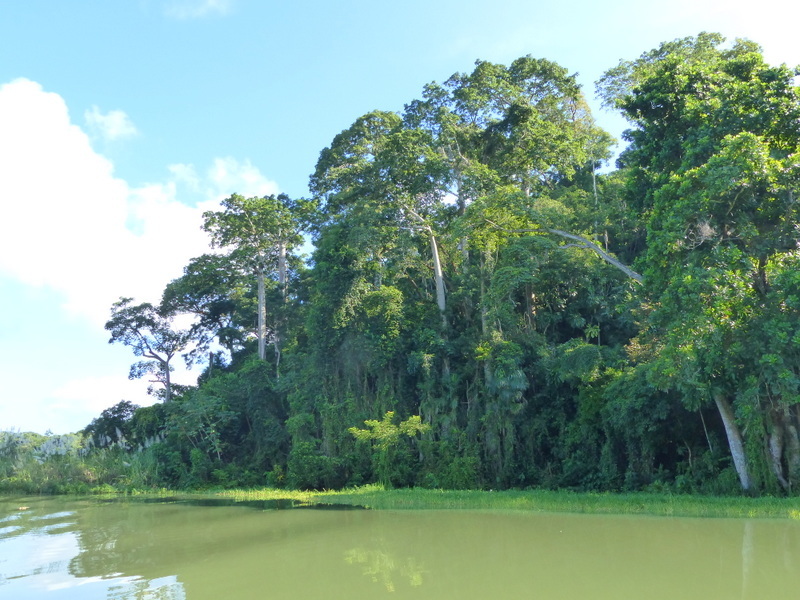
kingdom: Plantae
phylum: Tracheophyta
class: Magnoliopsida
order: Malvales
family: Malvaceae
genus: Cavanillesia
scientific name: Cavanillesia platanifolia
